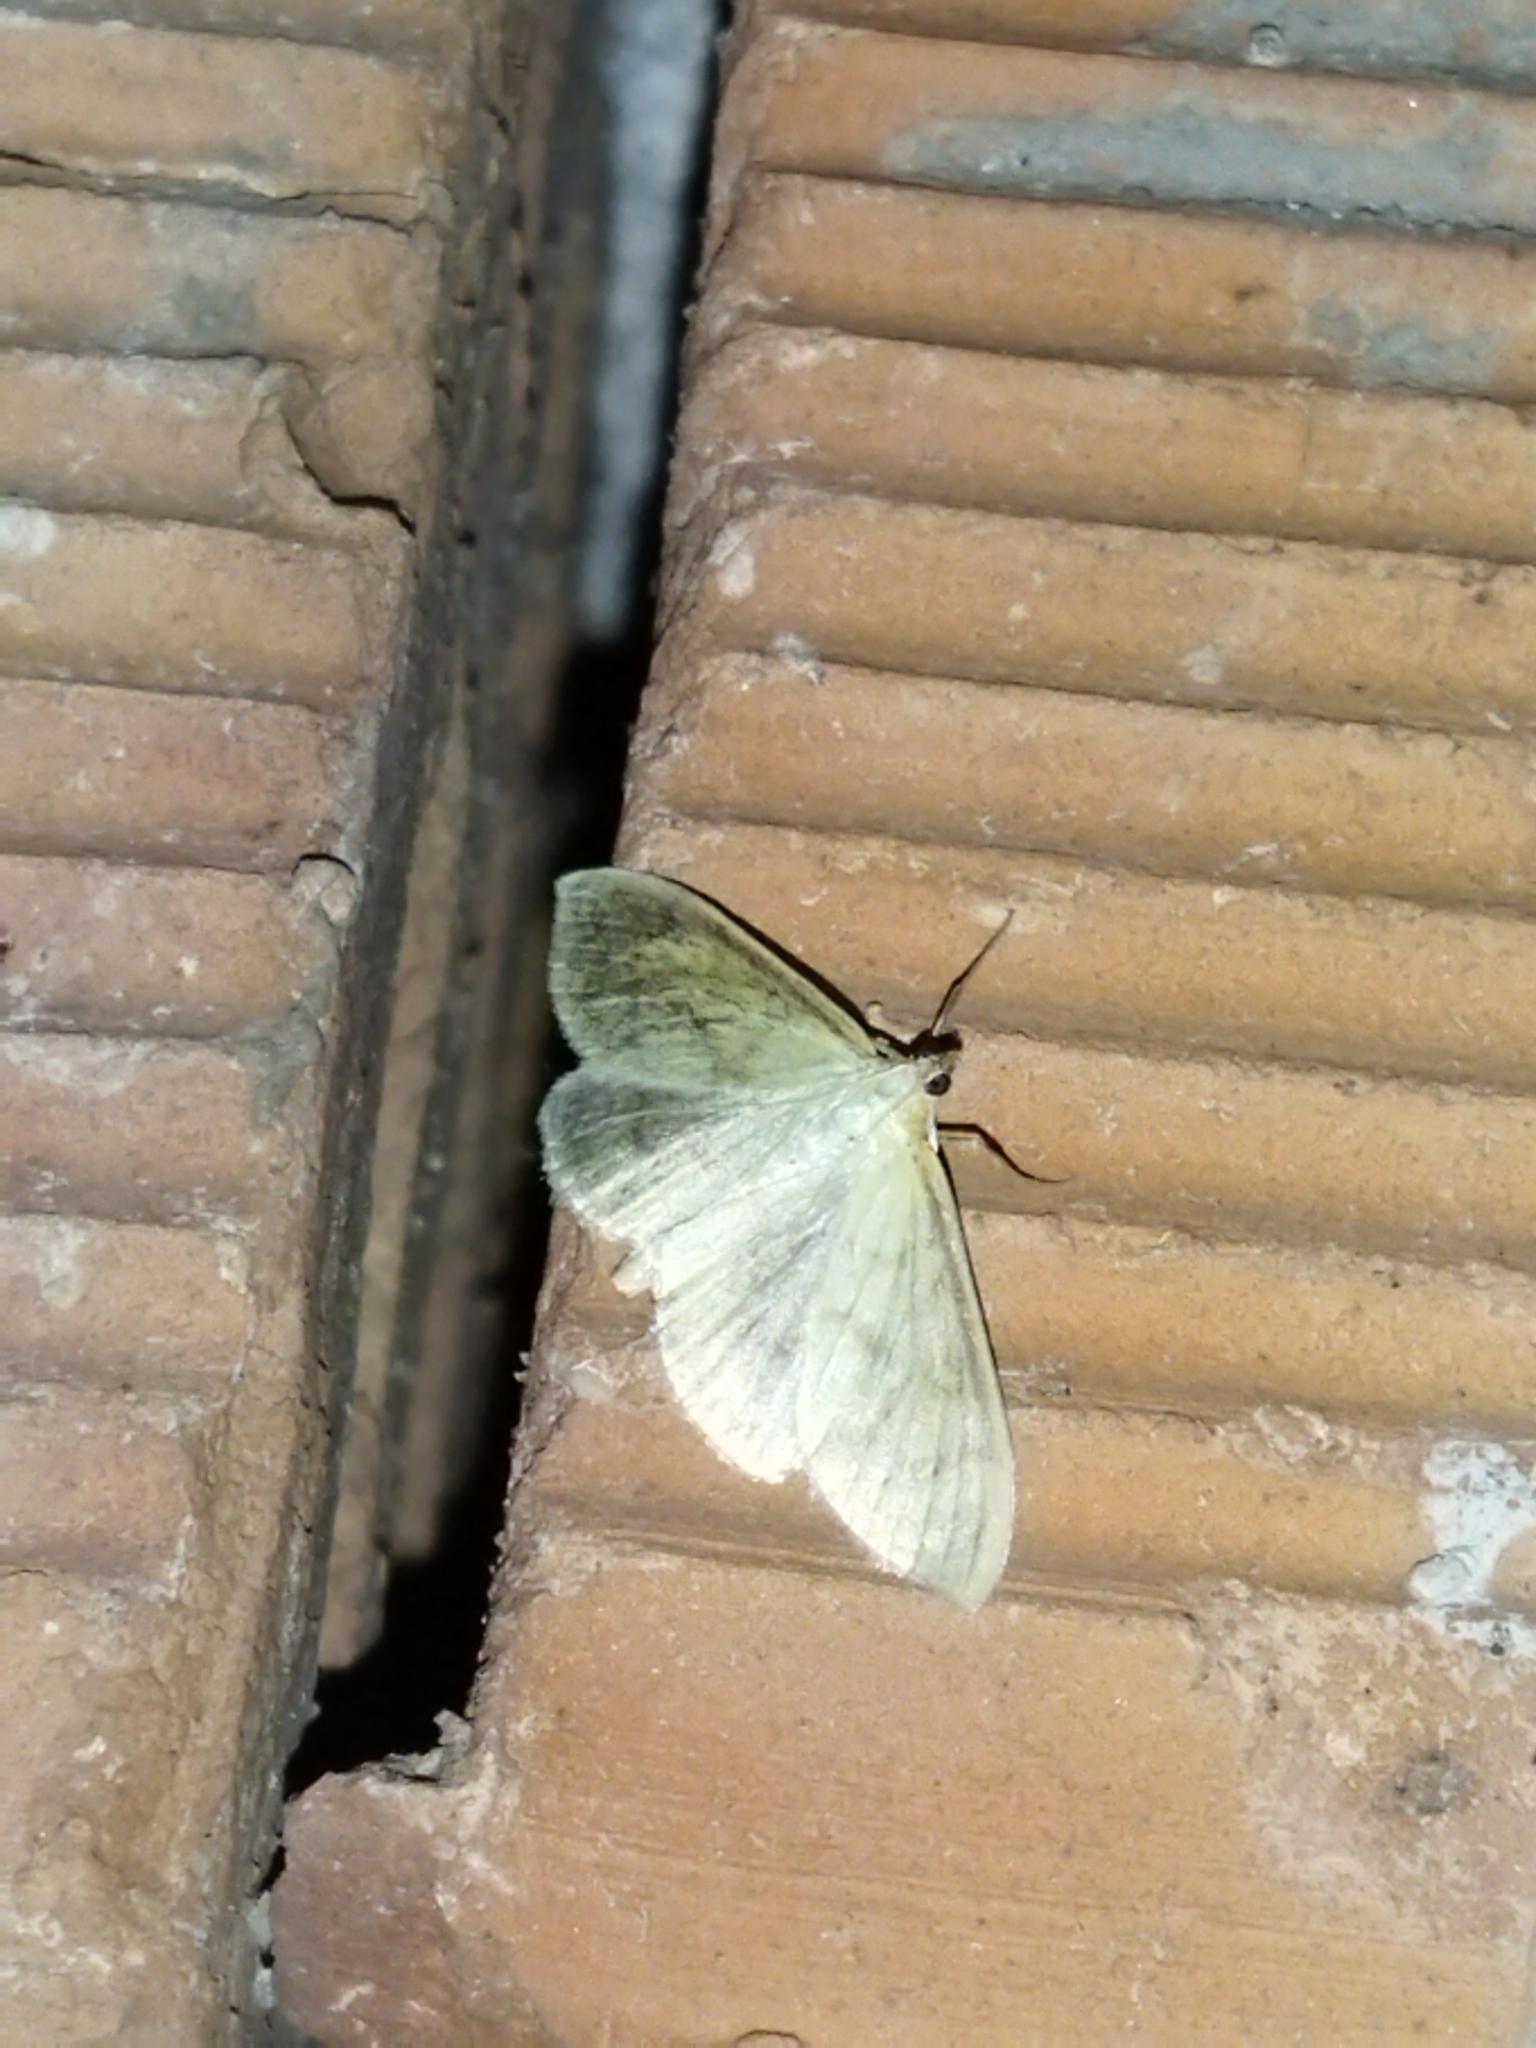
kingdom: Animalia
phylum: Arthropoda
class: Insecta
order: Lepidoptera
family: Crambidae
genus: Patania
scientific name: Patania ruralis
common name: Mother of pearl
